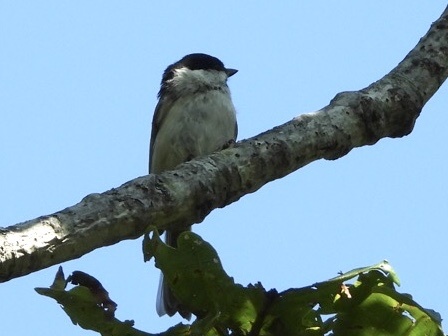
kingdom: Animalia
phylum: Chordata
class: Aves
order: Passeriformes
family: Paridae
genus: Poecile
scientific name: Poecile palustris
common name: Marsh tit
